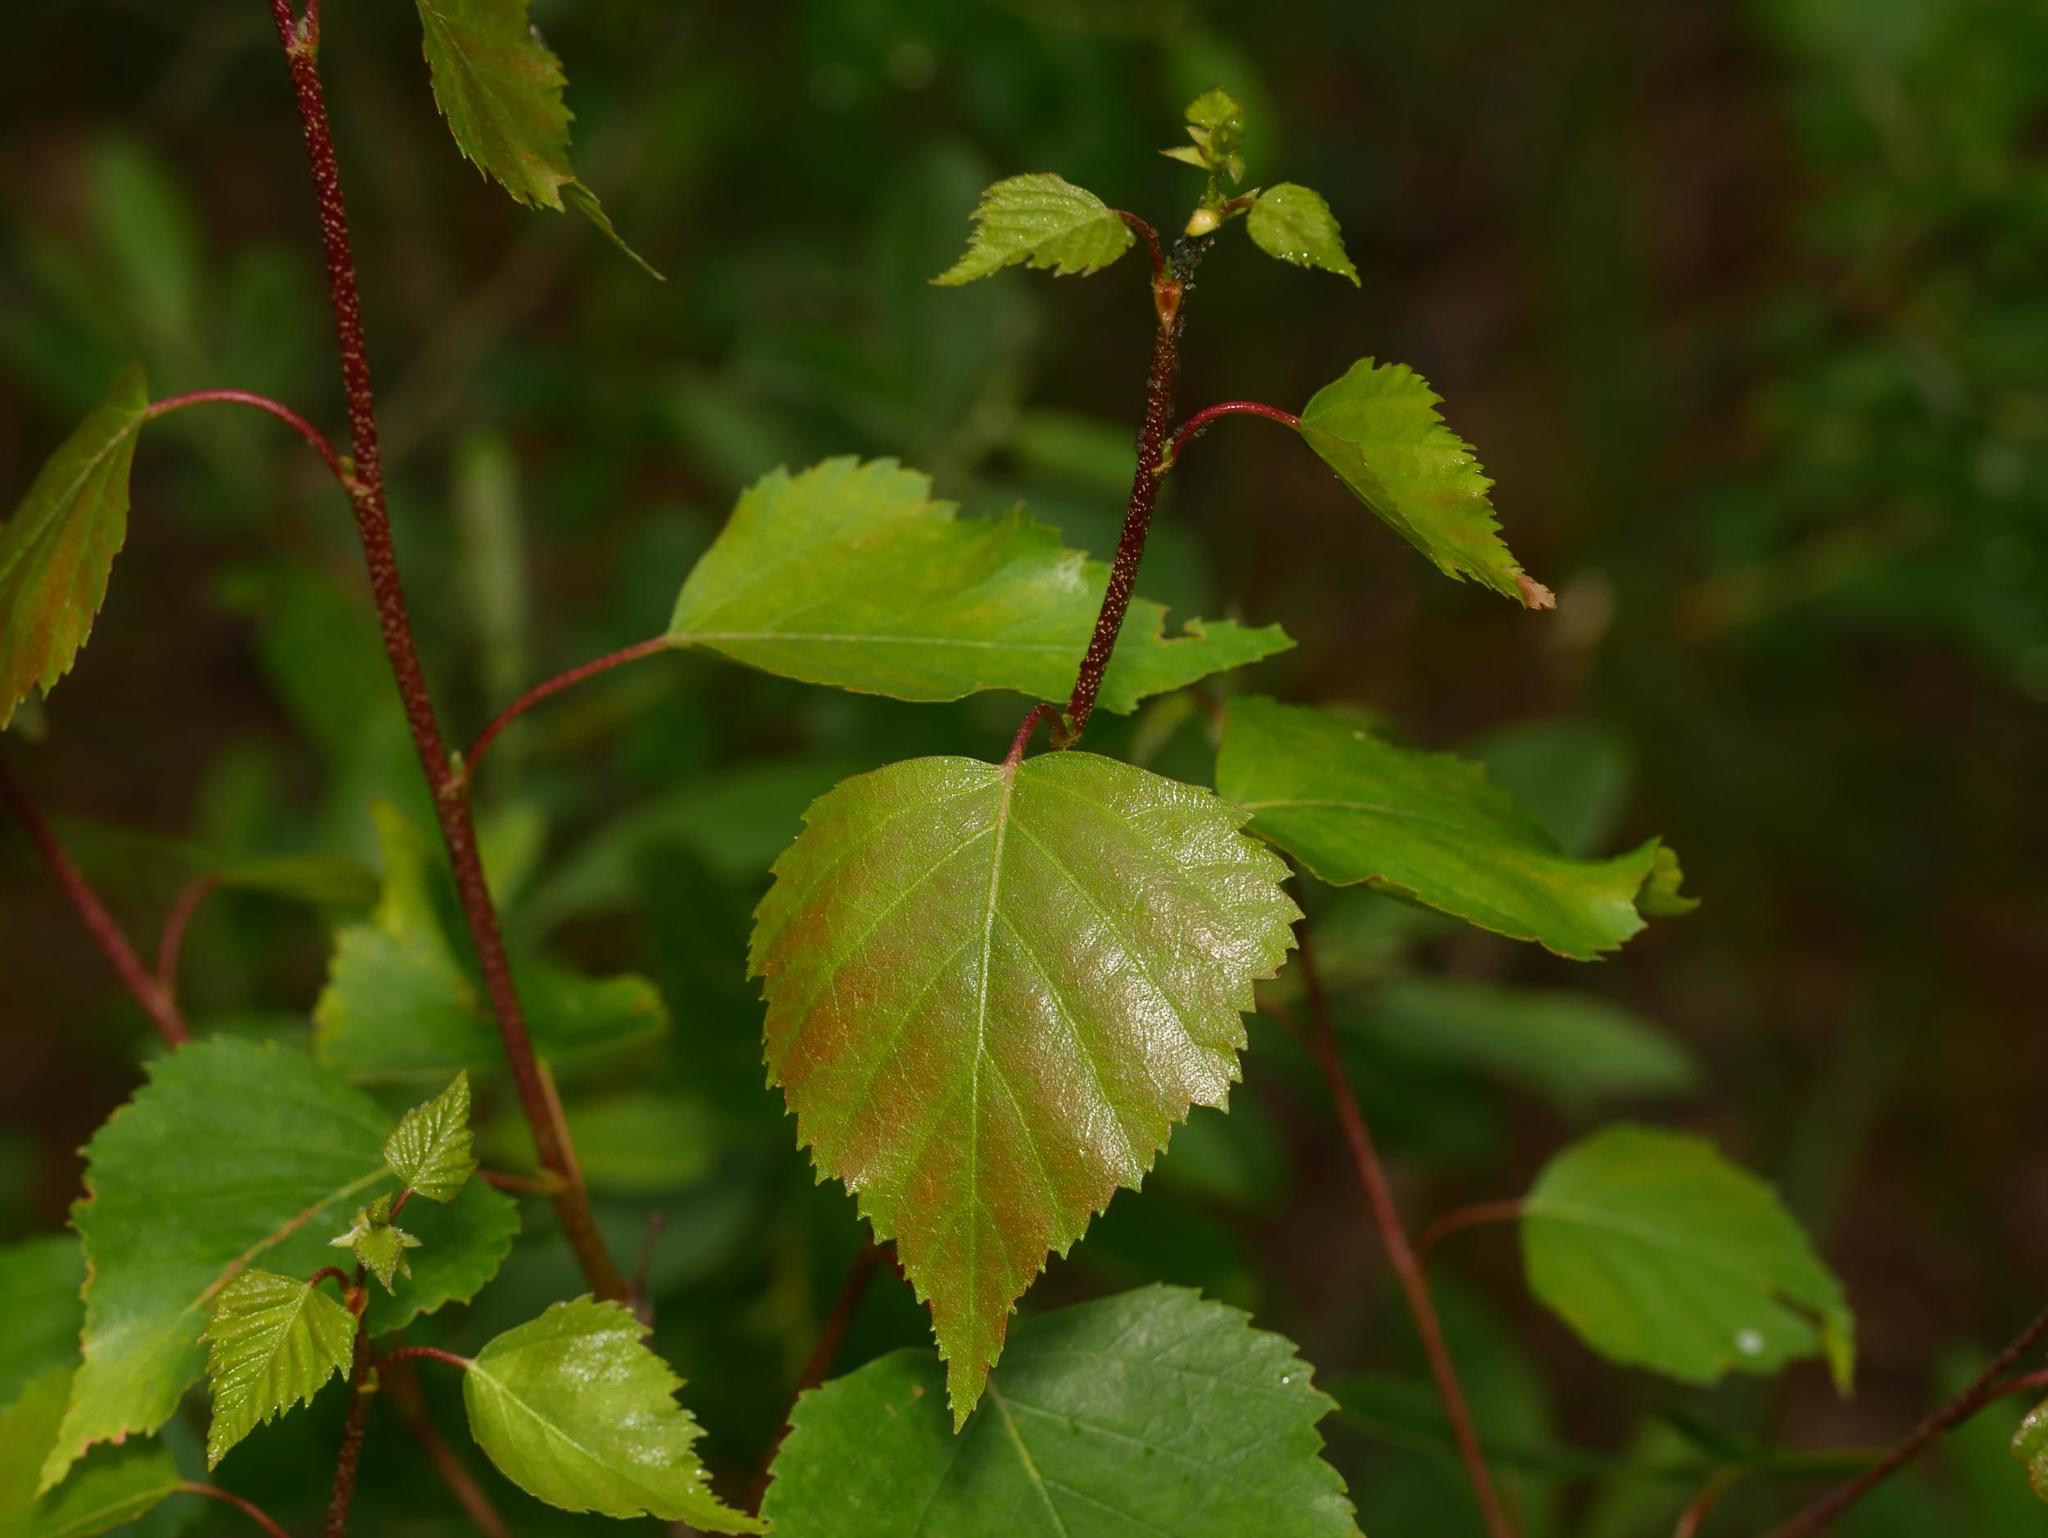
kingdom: Plantae
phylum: Tracheophyta
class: Magnoliopsida
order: Fagales
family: Betulaceae
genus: Betula
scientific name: Betula pendula
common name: Silver birch
